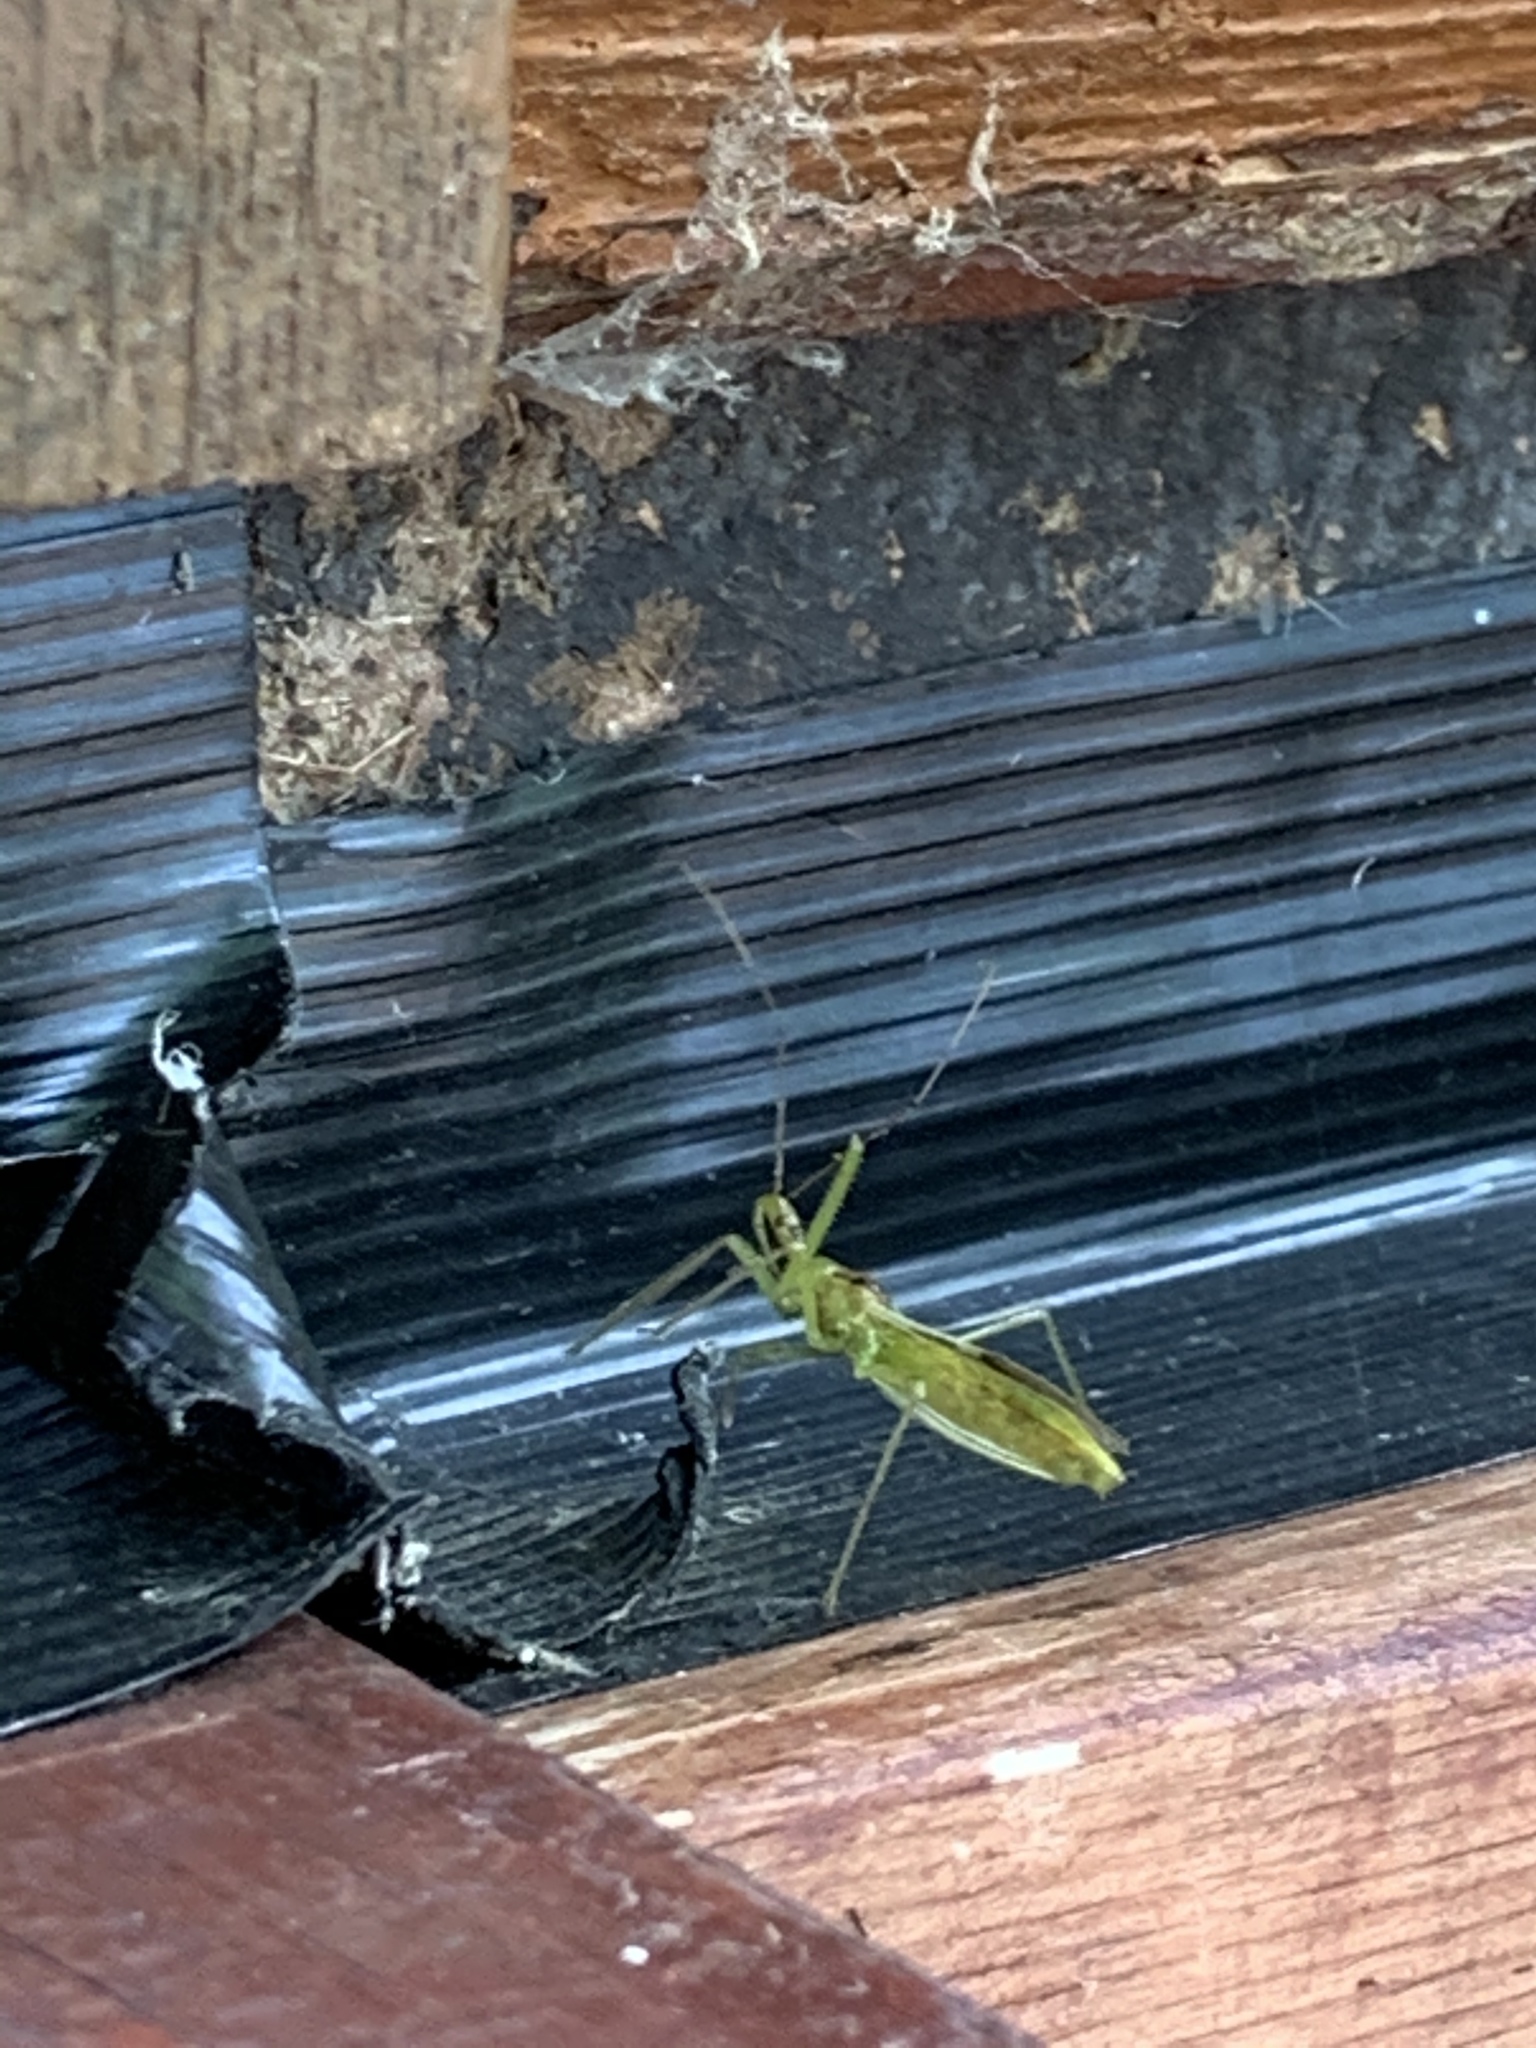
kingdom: Animalia
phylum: Arthropoda
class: Insecta
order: Hemiptera
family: Reduviidae
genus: Zelus
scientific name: Zelus luridus
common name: Pale green assassin bug
